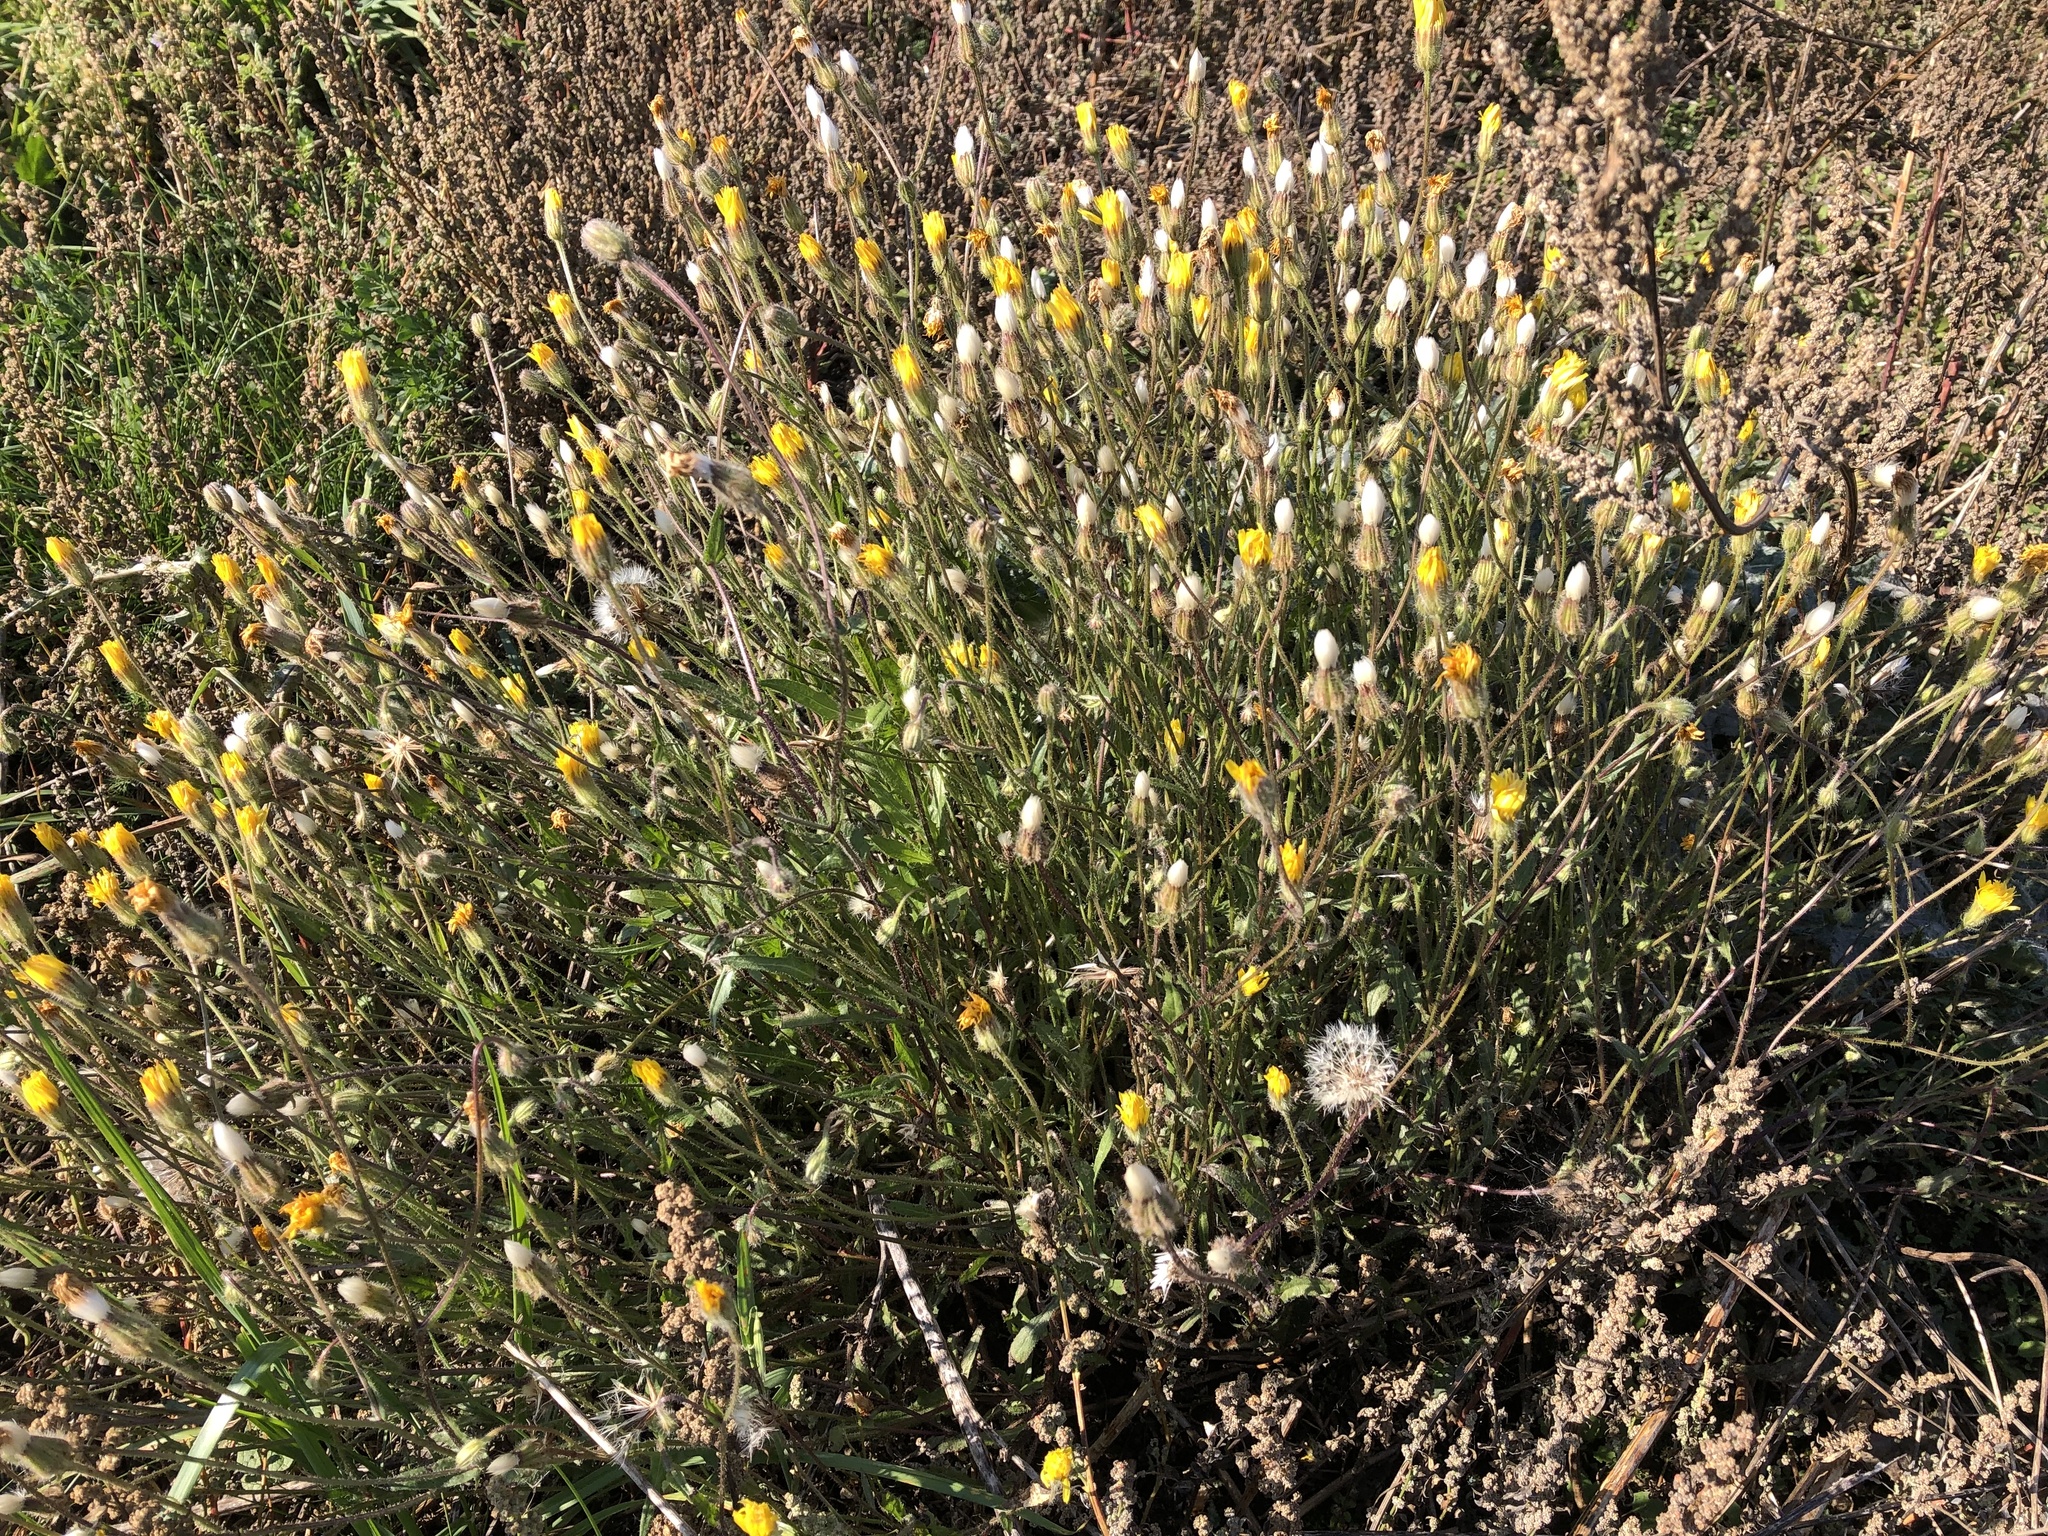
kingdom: Plantae
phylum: Tracheophyta
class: Magnoliopsida
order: Asterales
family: Asteraceae
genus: Crepis
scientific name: Crepis foetida
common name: Stinking hawk's-beard
